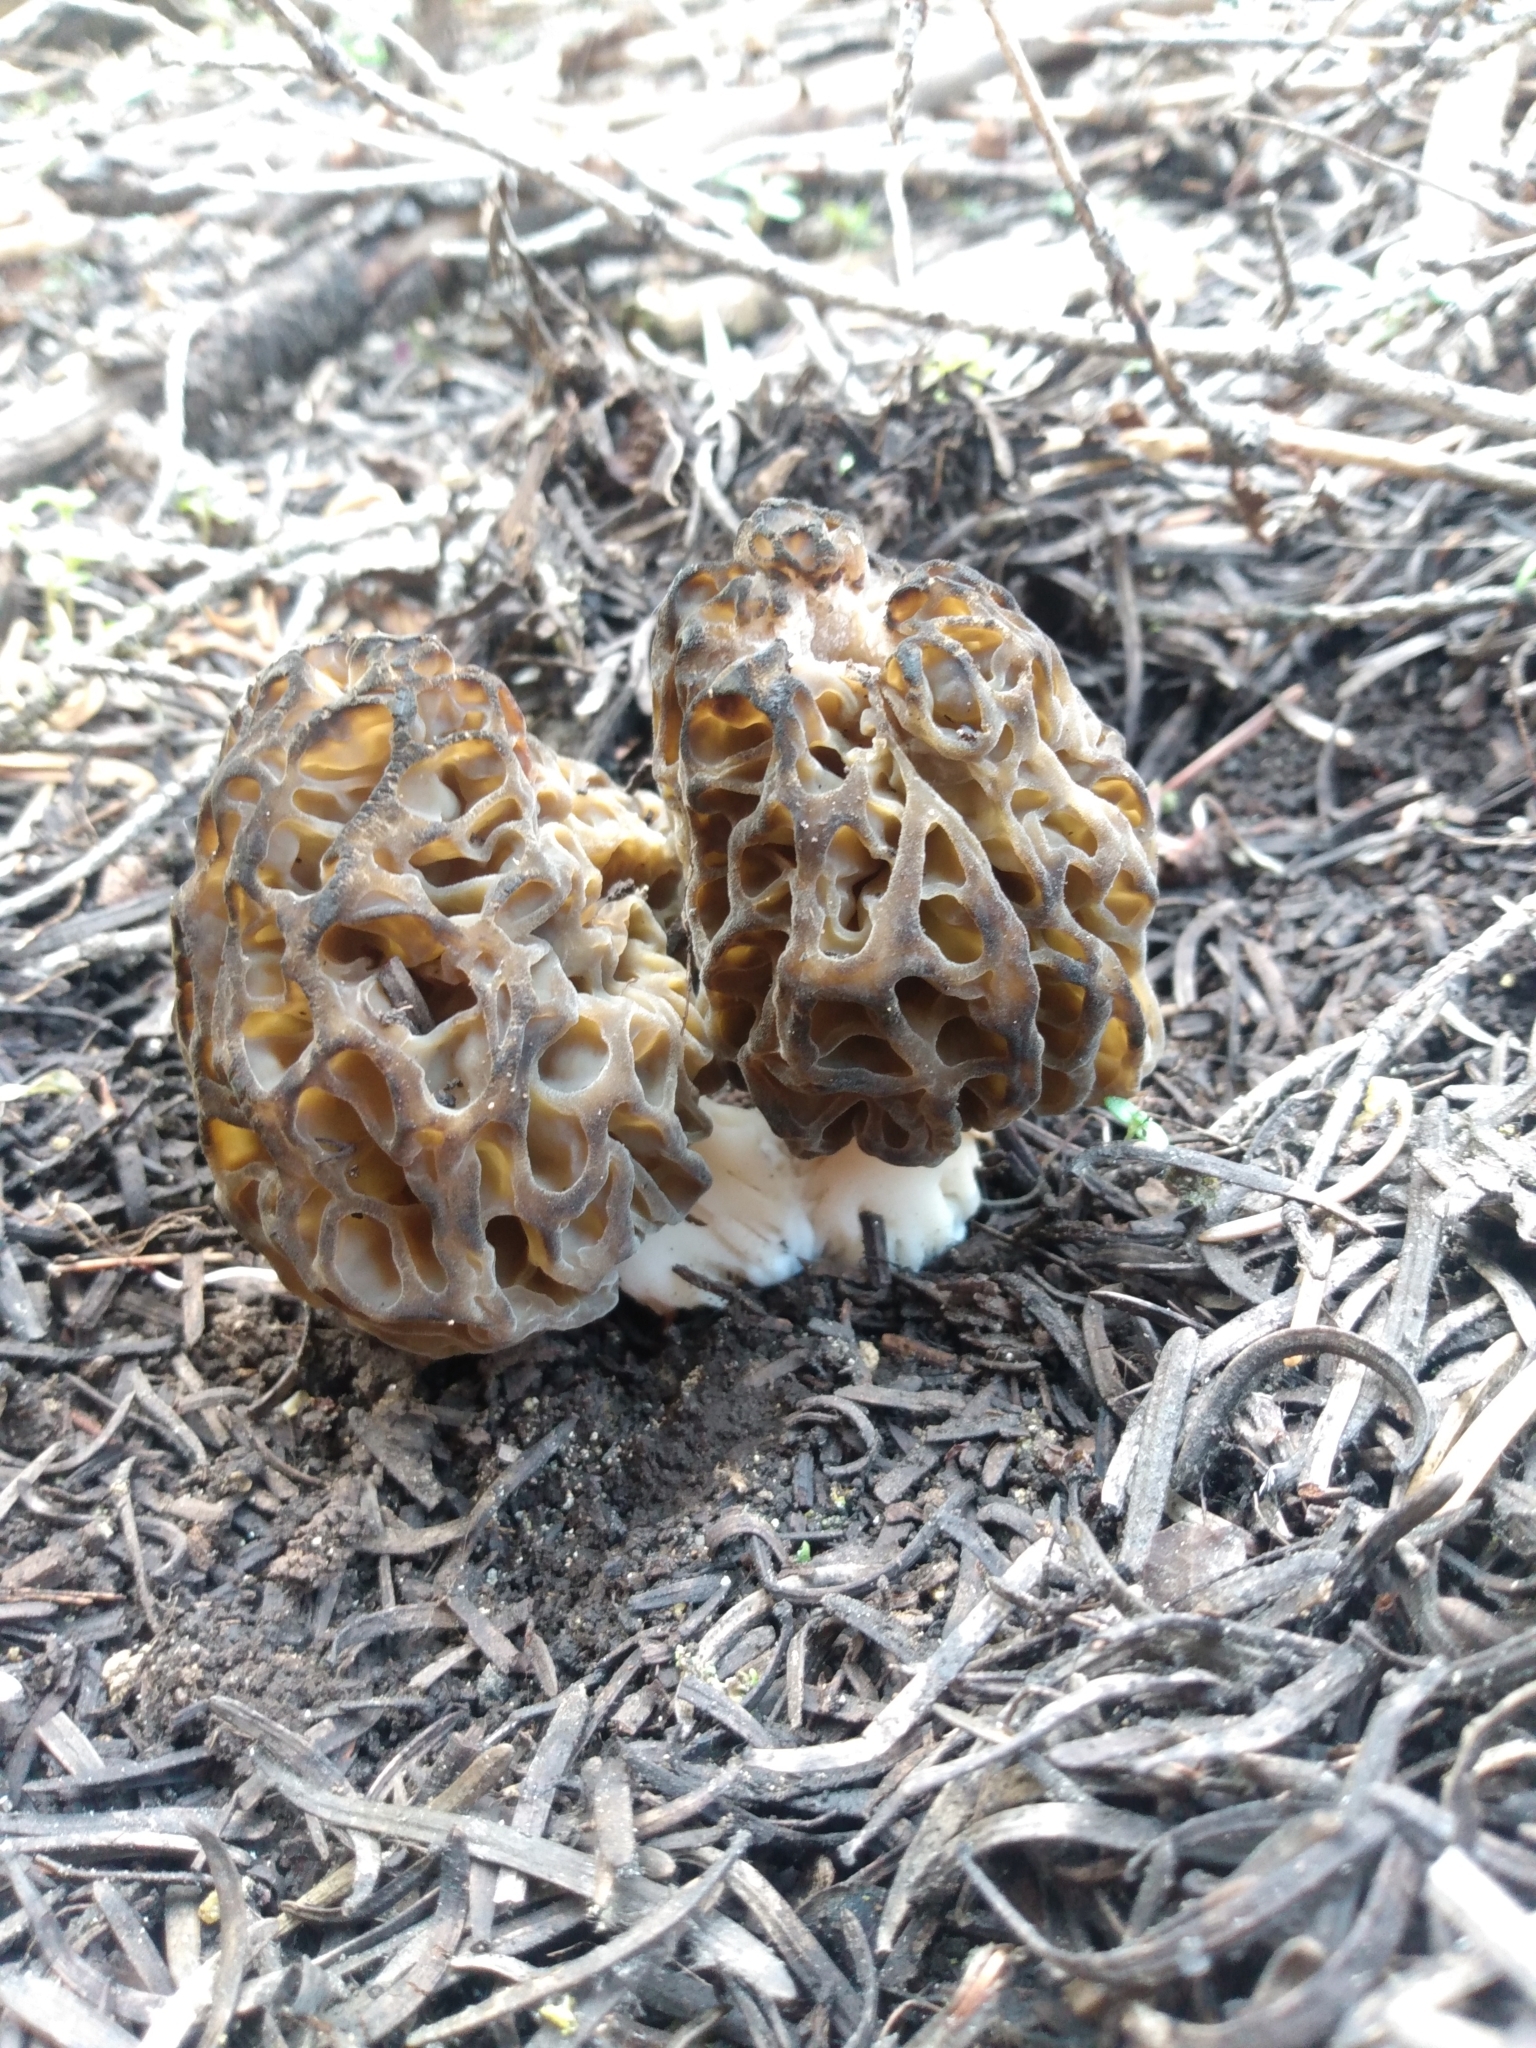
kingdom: Fungi
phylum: Ascomycota
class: Pezizomycetes
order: Pezizales
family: Morchellaceae
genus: Morchella
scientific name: Morchella snyderi
